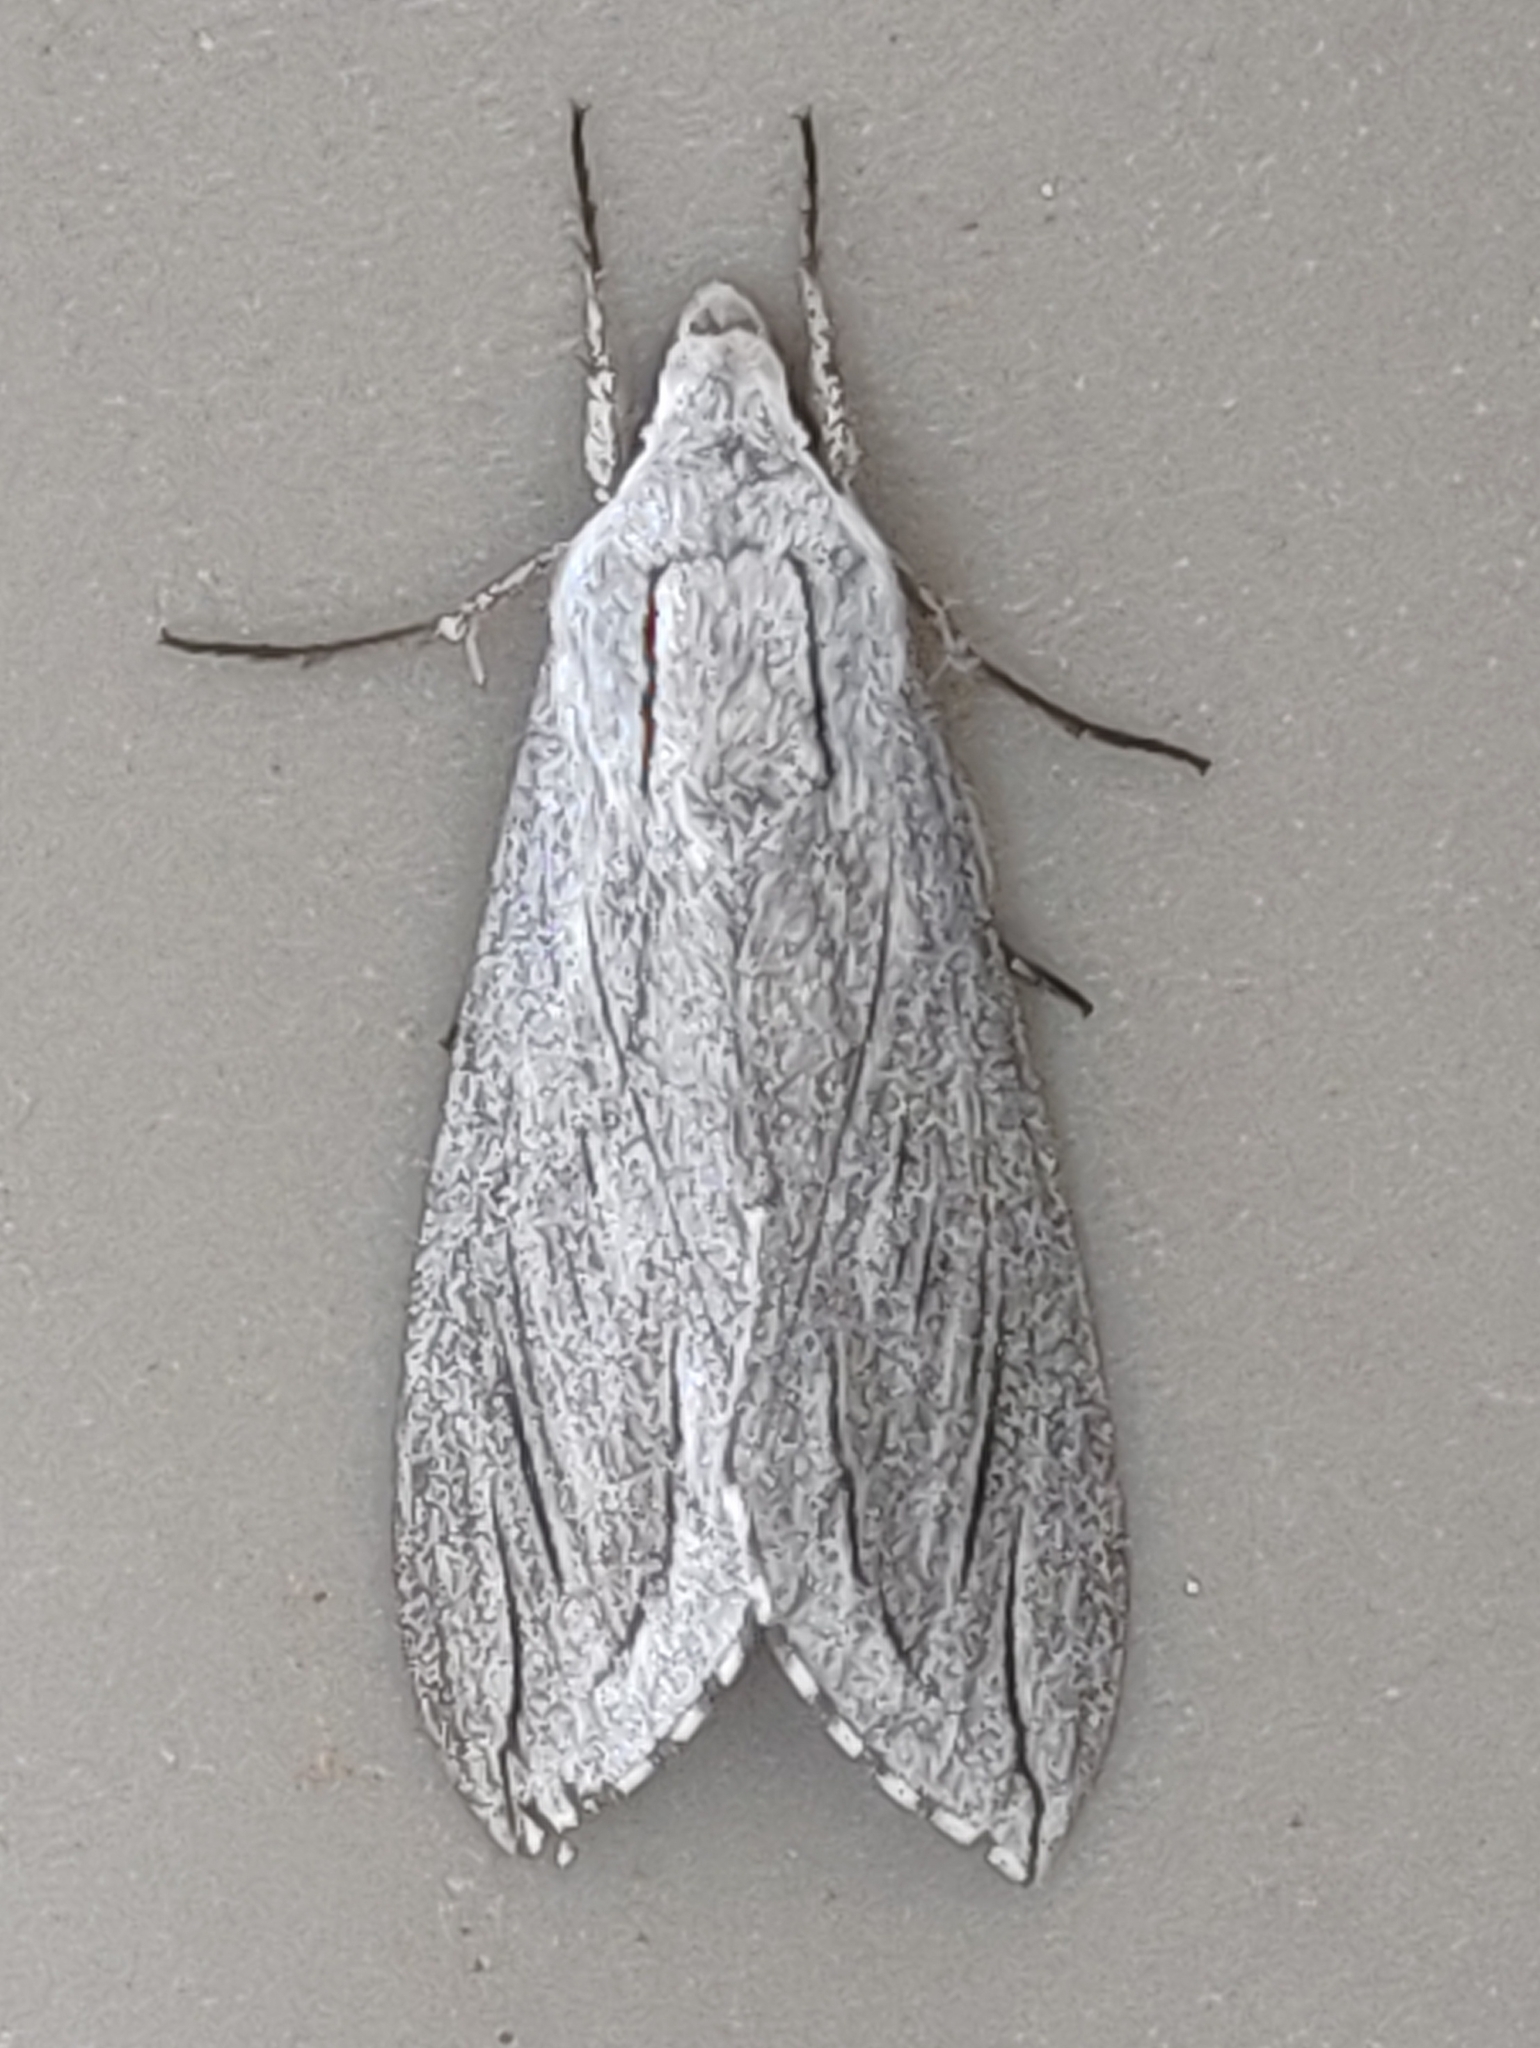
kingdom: Animalia
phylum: Arthropoda
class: Insecta
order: Lepidoptera
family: Sphingidae
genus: Sphinx
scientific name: Sphinx chersis
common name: Great ash sphinx
